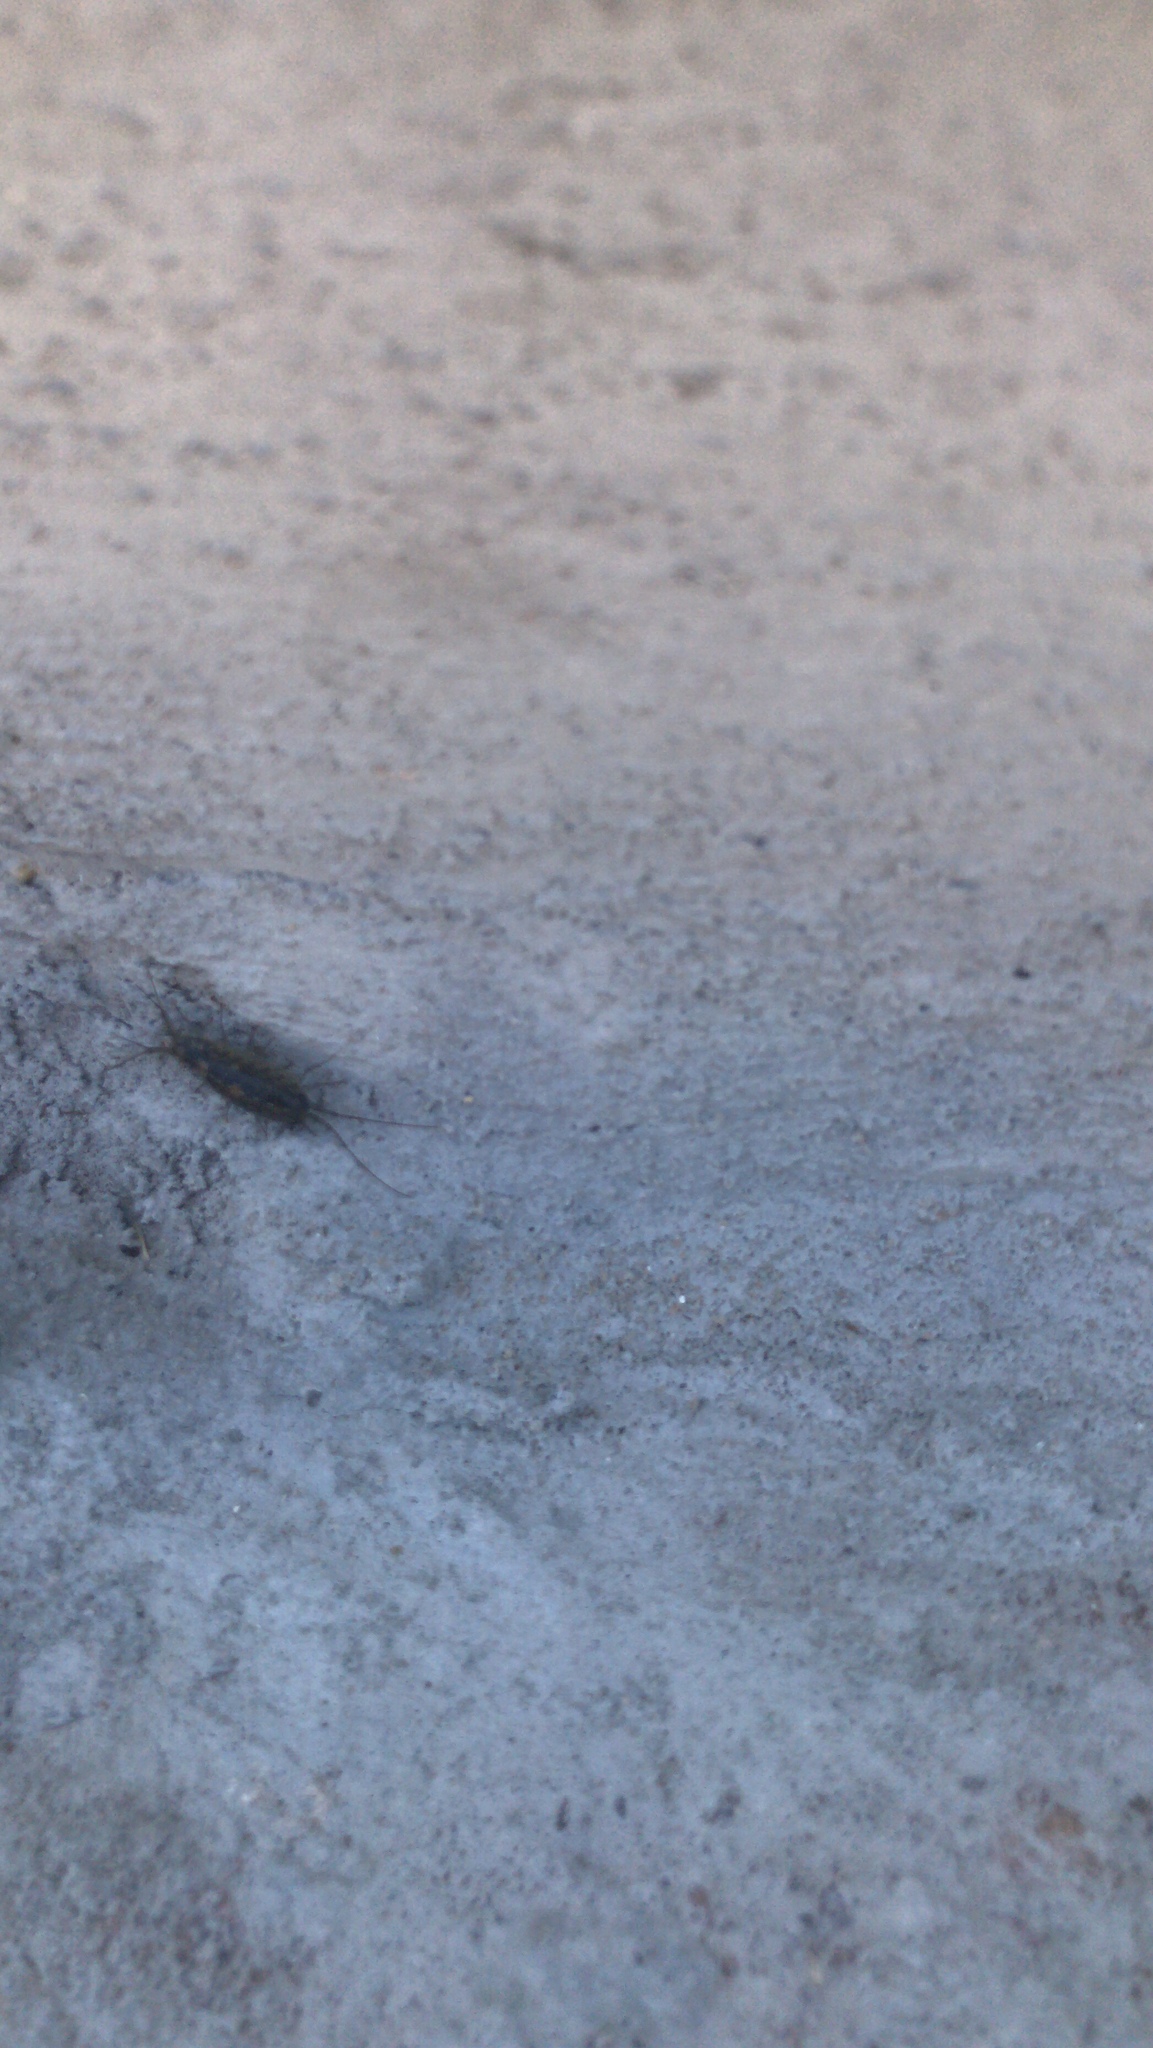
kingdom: Animalia
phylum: Arthropoda
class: Malacostraca
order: Isopoda
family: Ligiidae
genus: Ligia
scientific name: Ligia exotica
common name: Wharf roach
